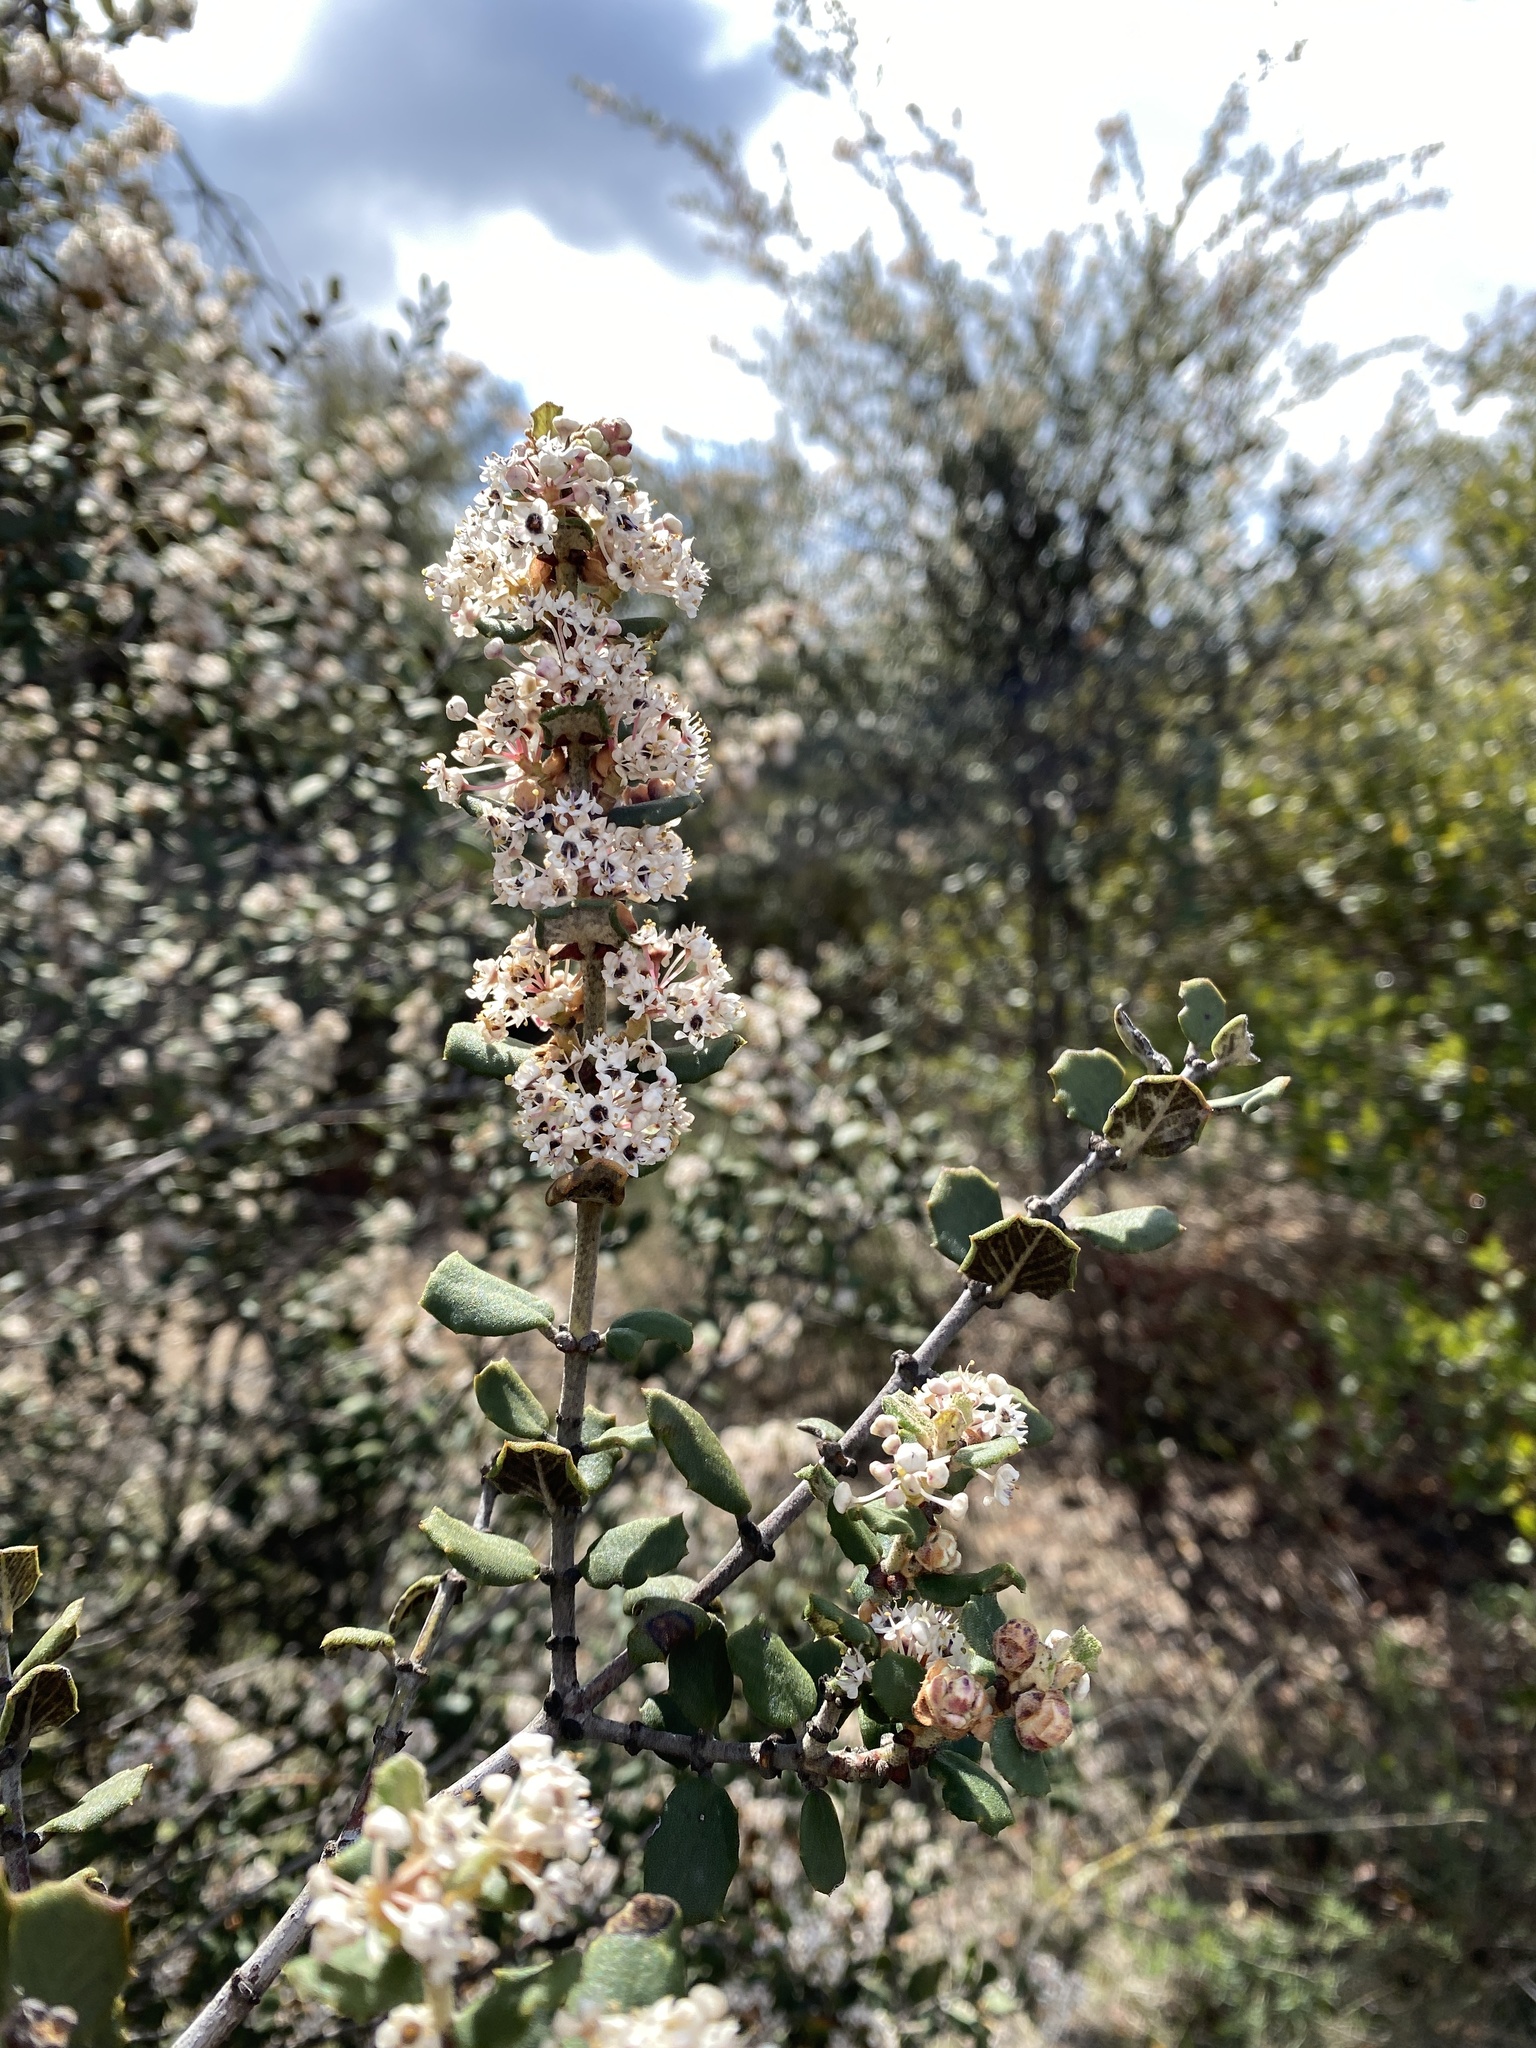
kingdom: Plantae
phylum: Tracheophyta
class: Magnoliopsida
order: Rosales
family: Rhamnaceae
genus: Ceanothus
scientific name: Ceanothus crassifolius
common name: Hoaryleaf ceanothus
